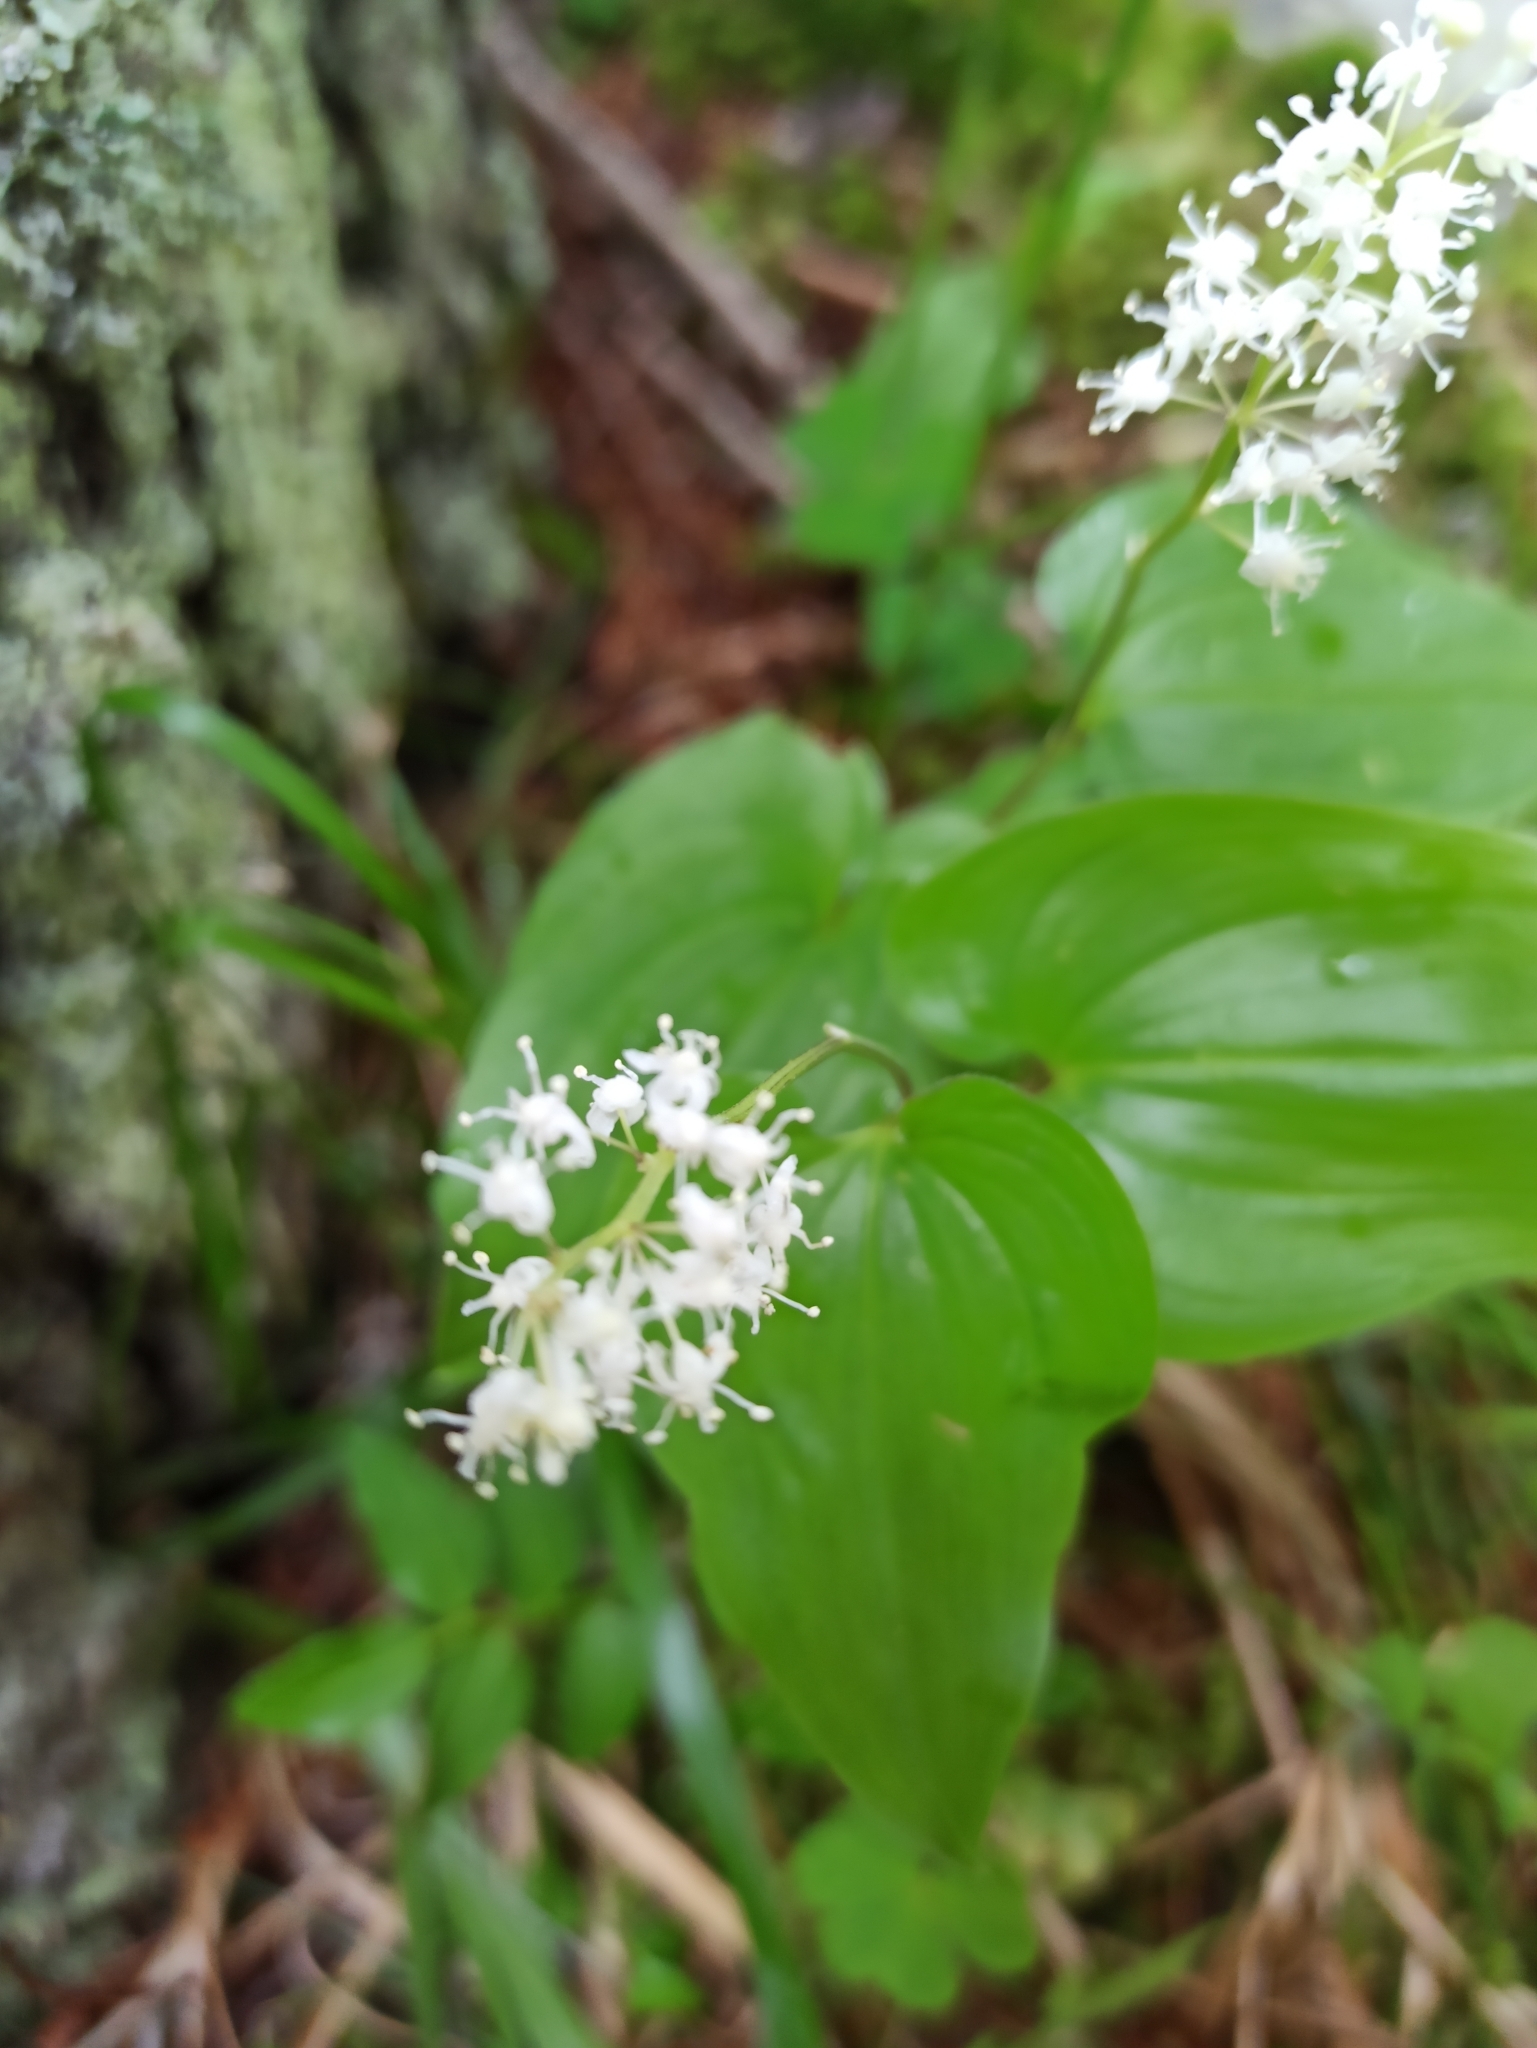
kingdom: Plantae
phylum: Tracheophyta
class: Liliopsida
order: Asparagales
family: Asparagaceae
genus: Maianthemum
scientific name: Maianthemum bifolium
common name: May lily
